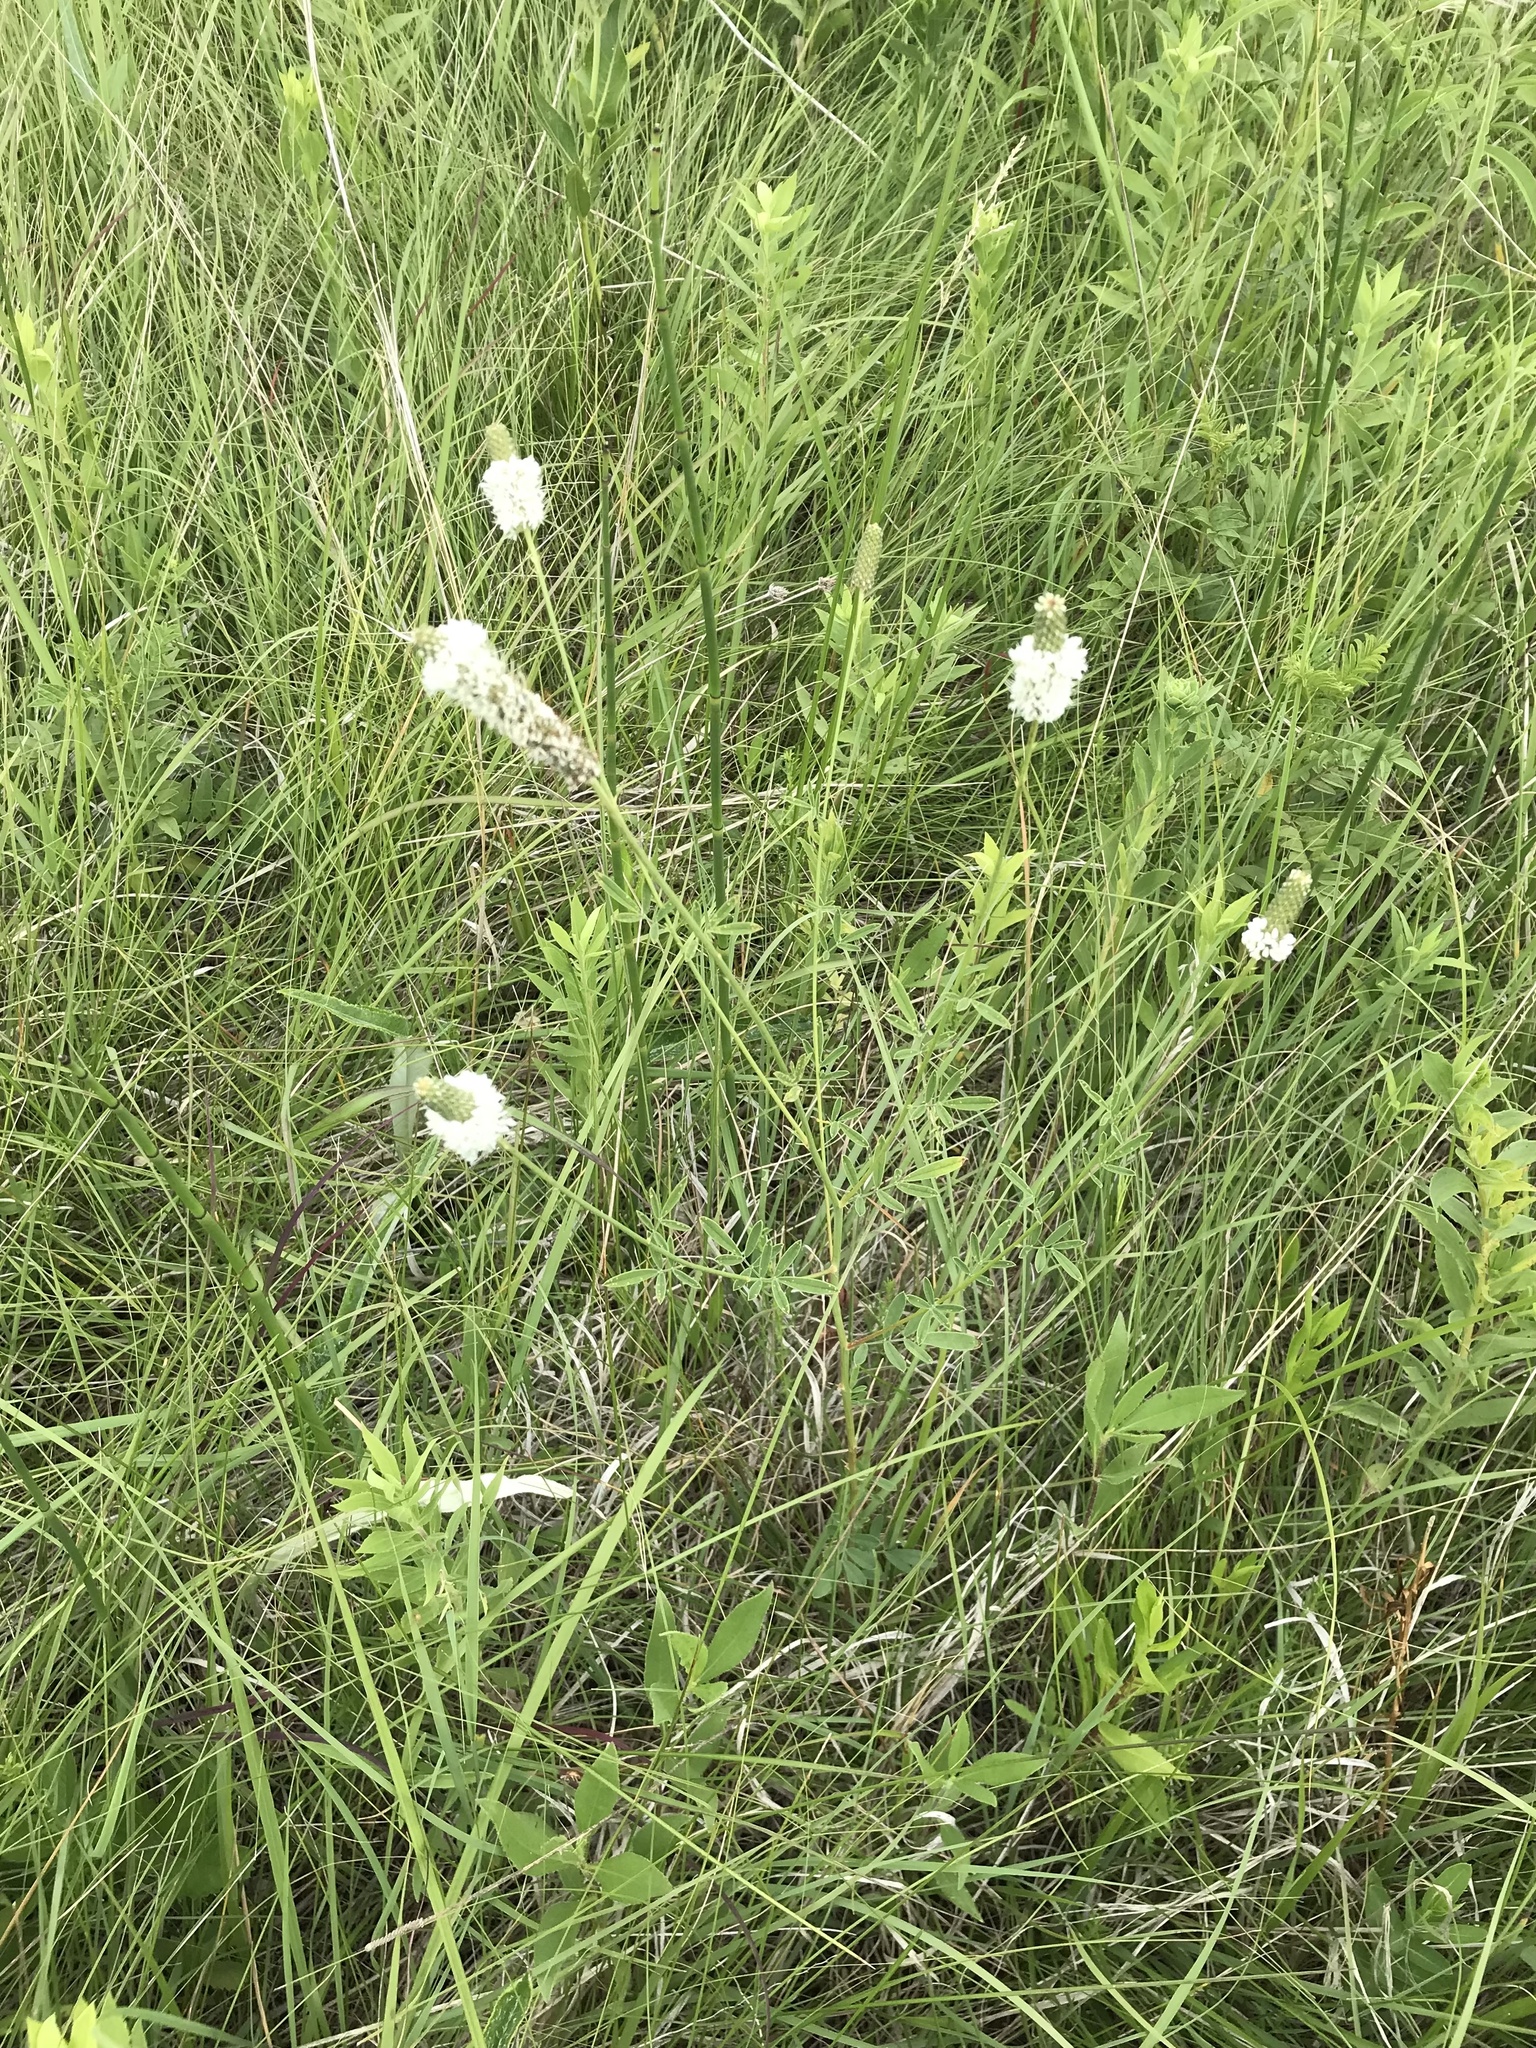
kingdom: Plantae
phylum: Tracheophyta
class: Magnoliopsida
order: Fabales
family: Fabaceae
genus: Dalea
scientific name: Dalea candida
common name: White prairie-clover
